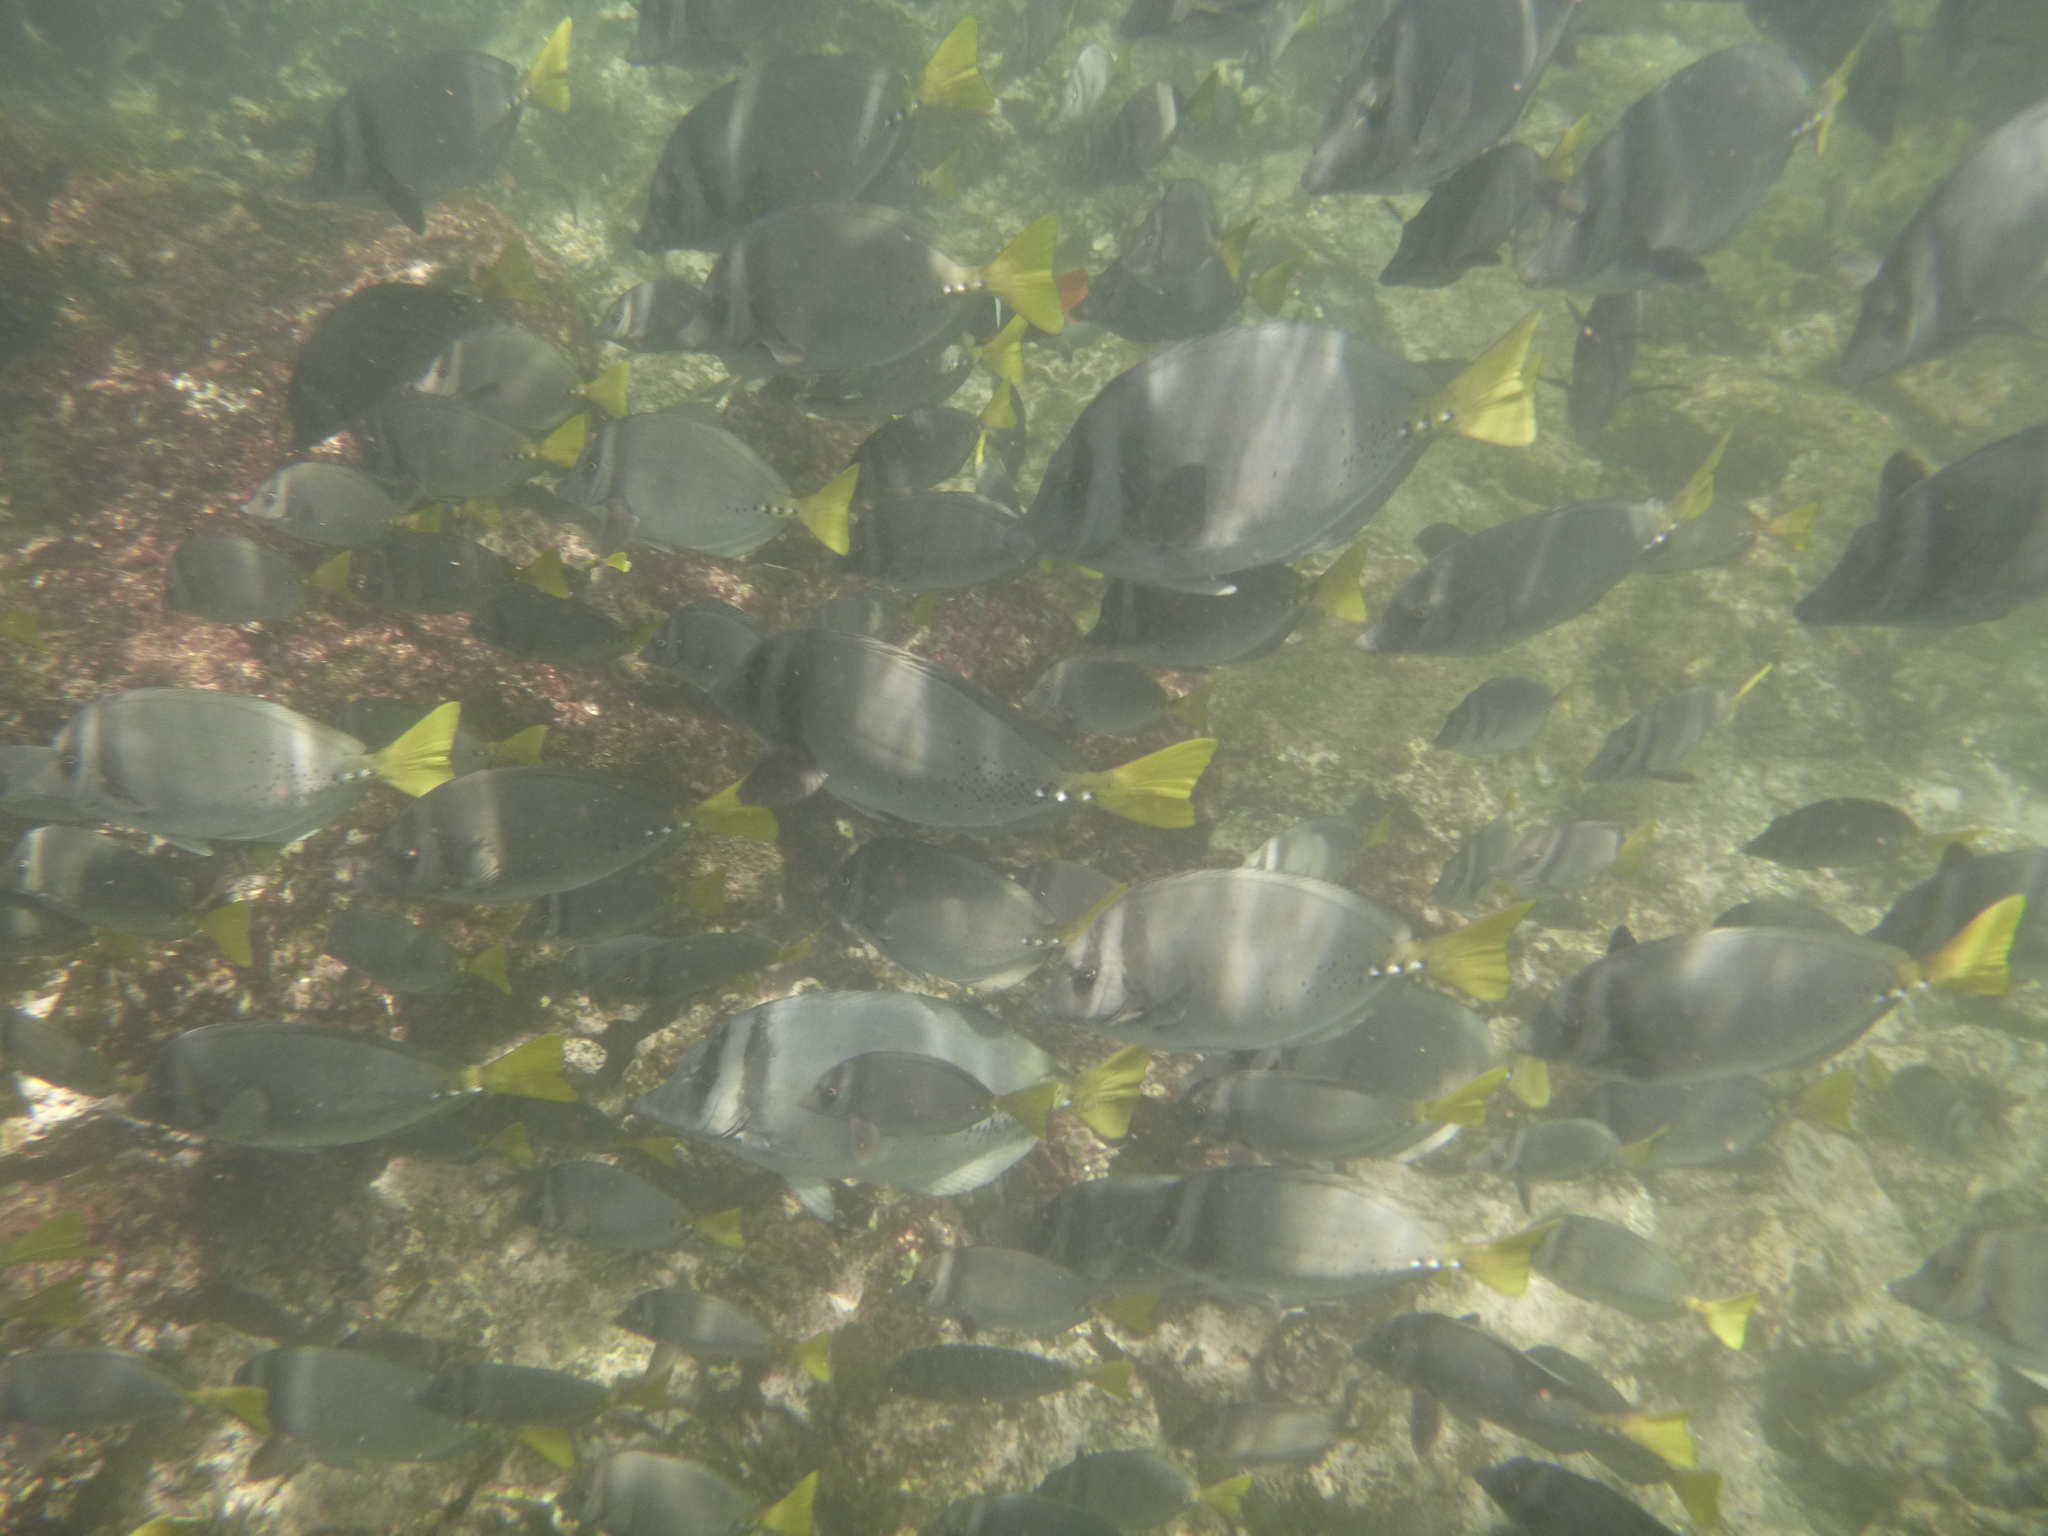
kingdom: Animalia
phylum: Chordata
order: Perciformes
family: Acanthuridae
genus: Prionurus
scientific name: Prionurus laticlavius
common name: Razor surgeonfish
